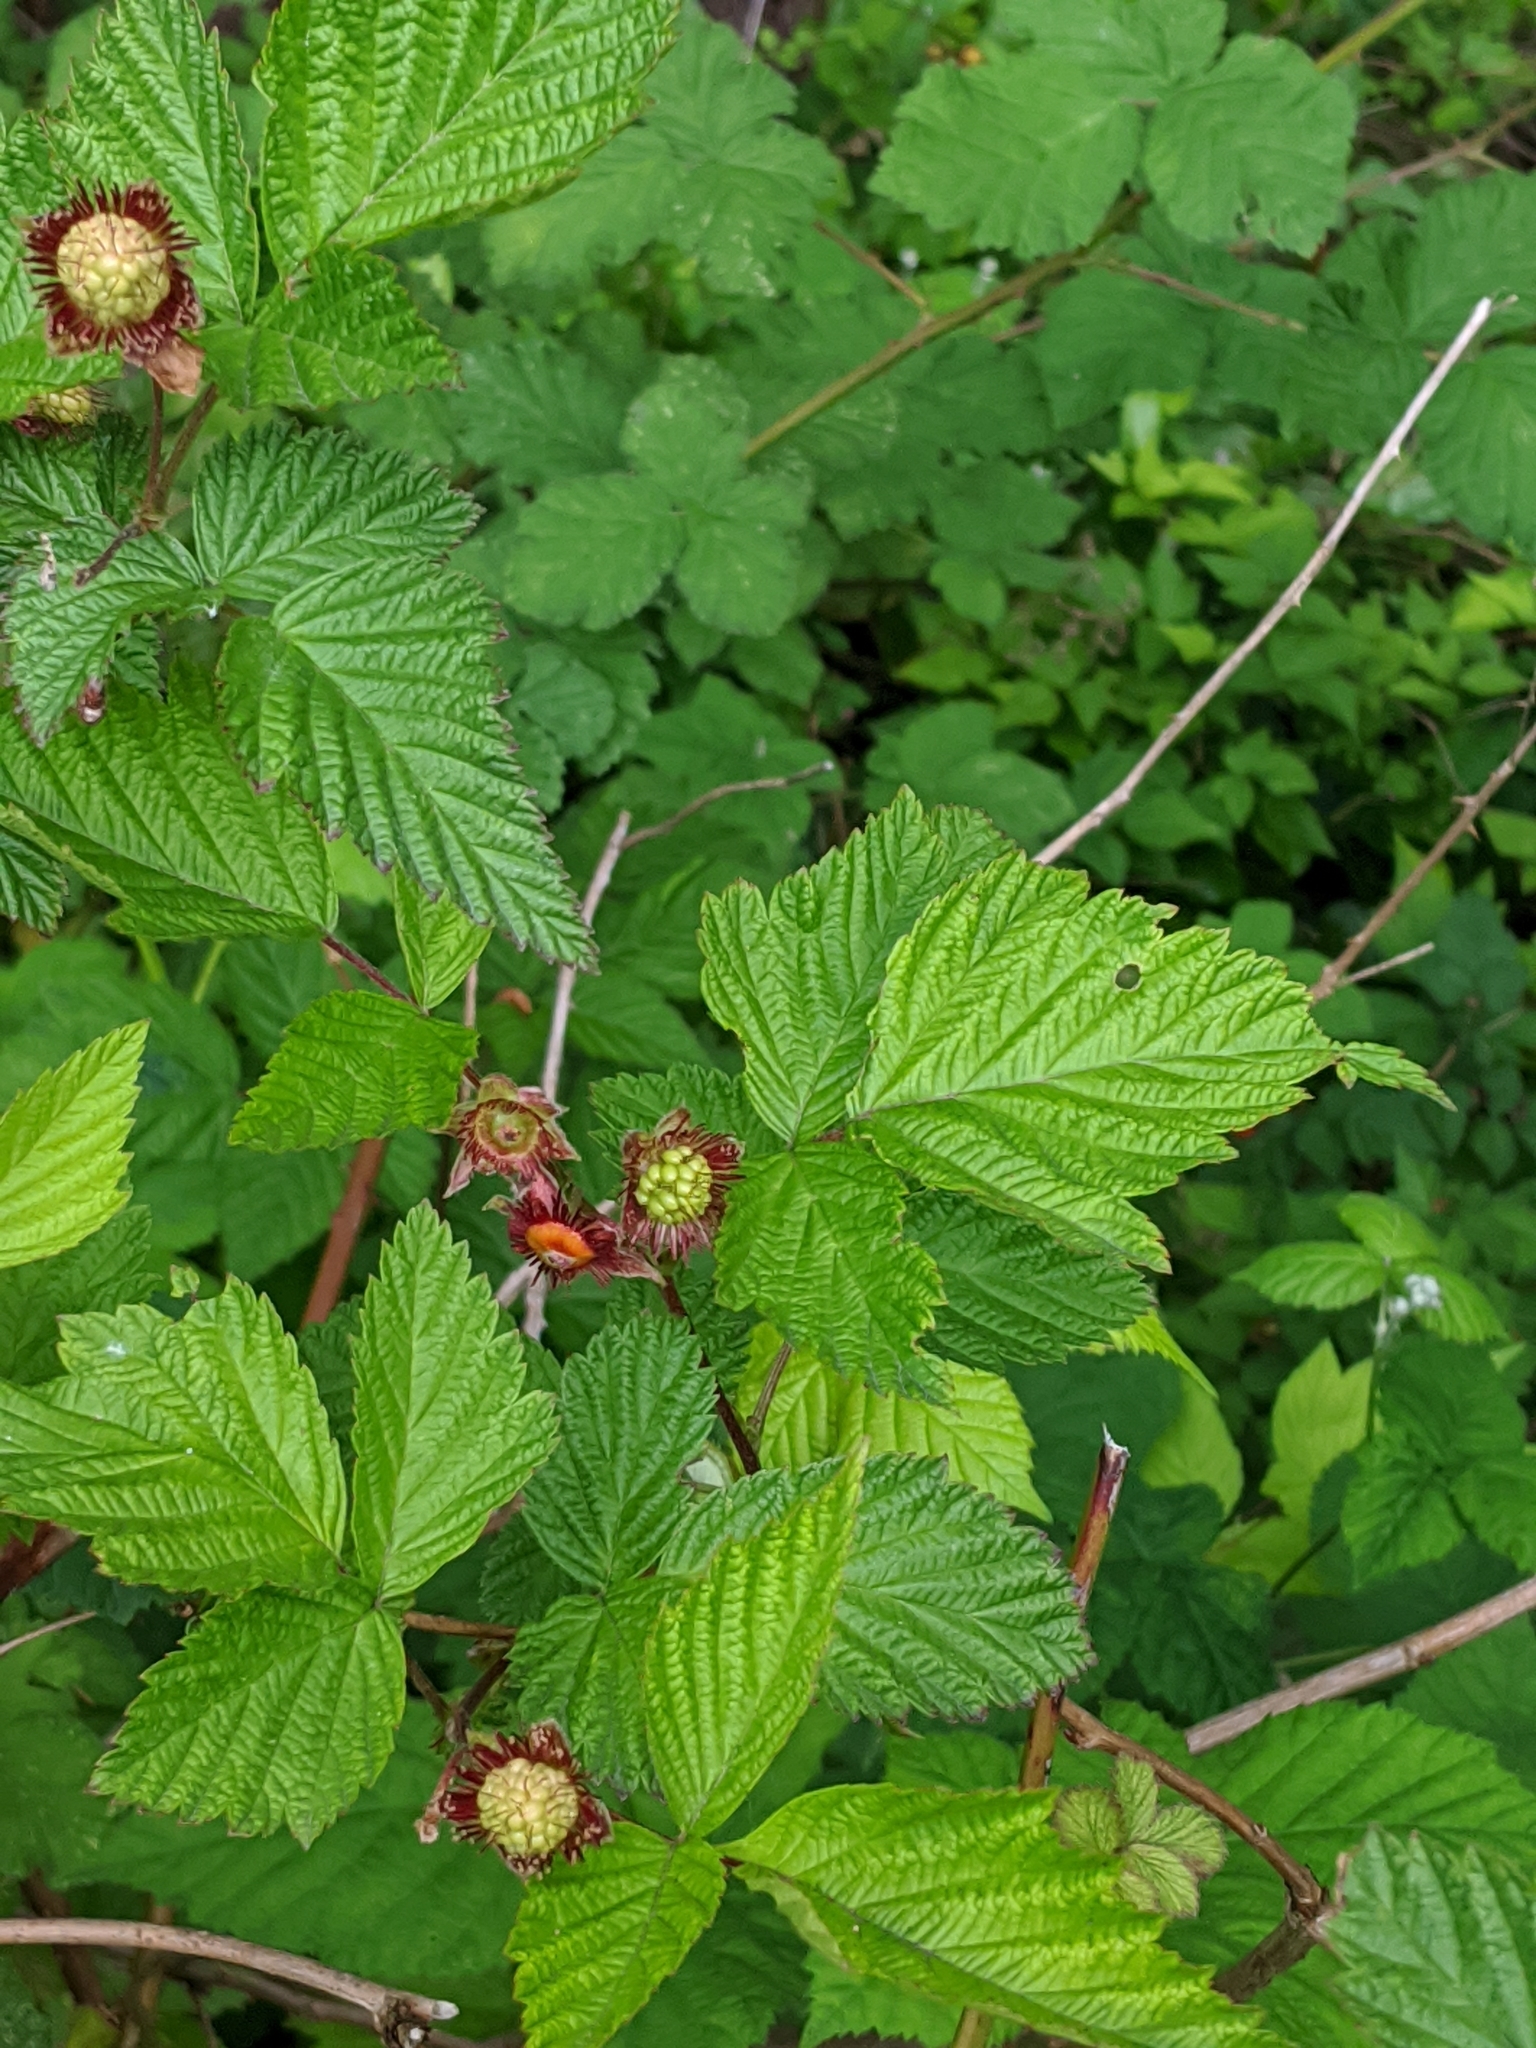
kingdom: Plantae
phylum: Tracheophyta
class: Magnoliopsida
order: Rosales
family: Rosaceae
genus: Rubus
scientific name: Rubus spectabilis
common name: Salmonberry
